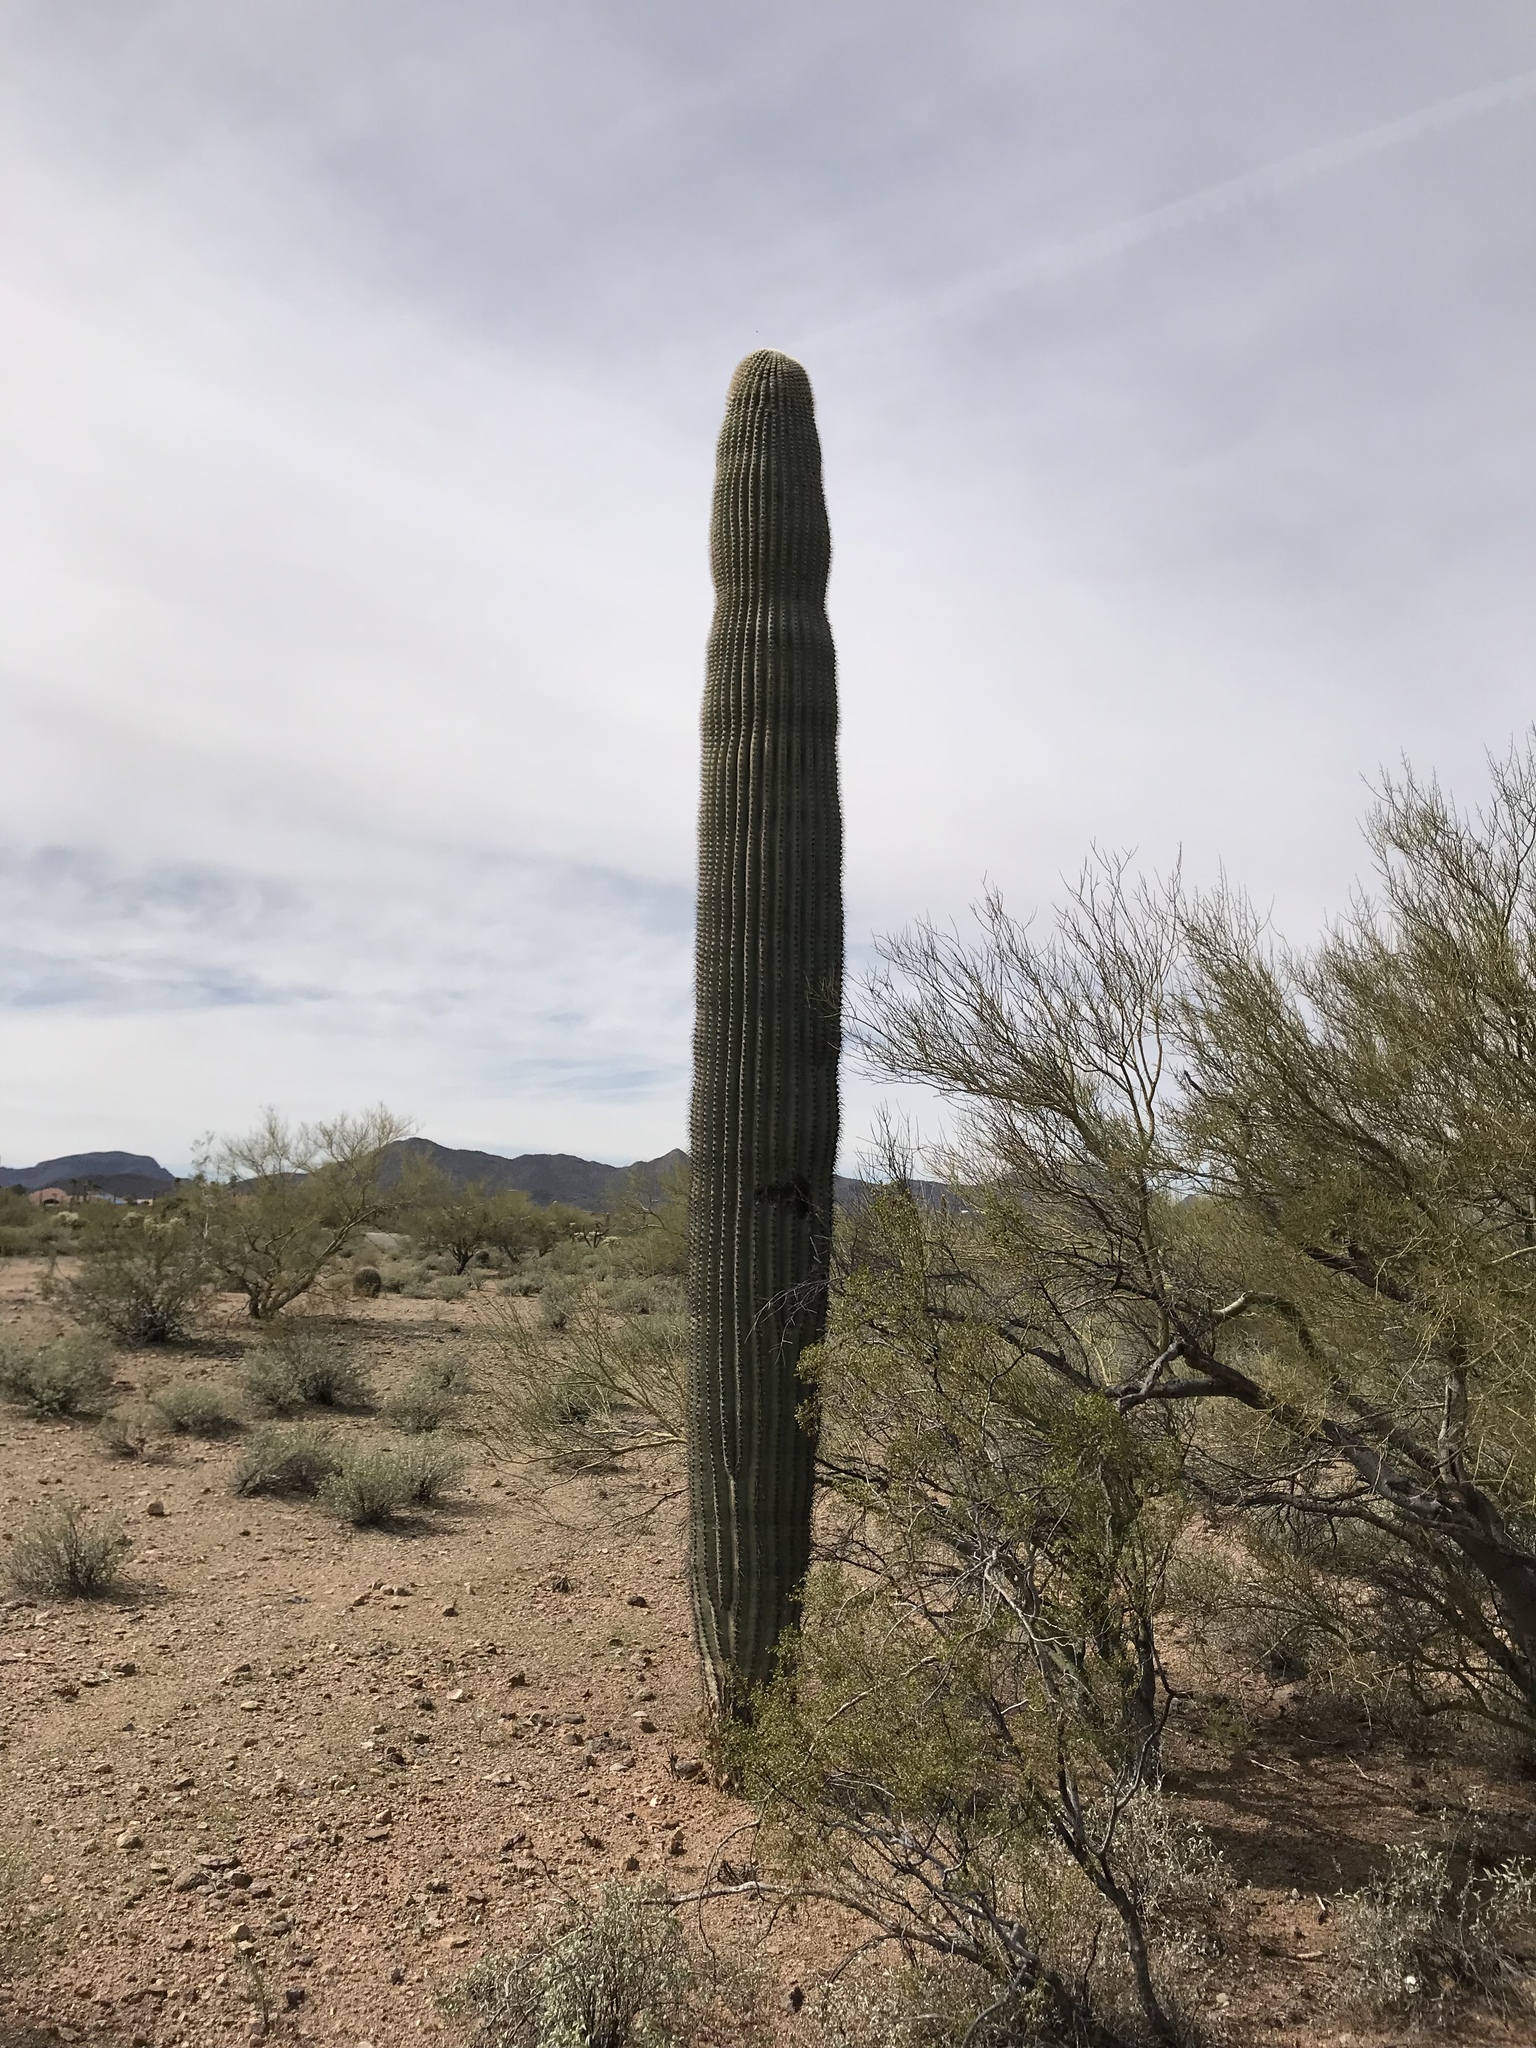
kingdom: Plantae
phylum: Tracheophyta
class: Magnoliopsida
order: Caryophyllales
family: Cactaceae
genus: Carnegiea
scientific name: Carnegiea gigantea
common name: Saguaro
